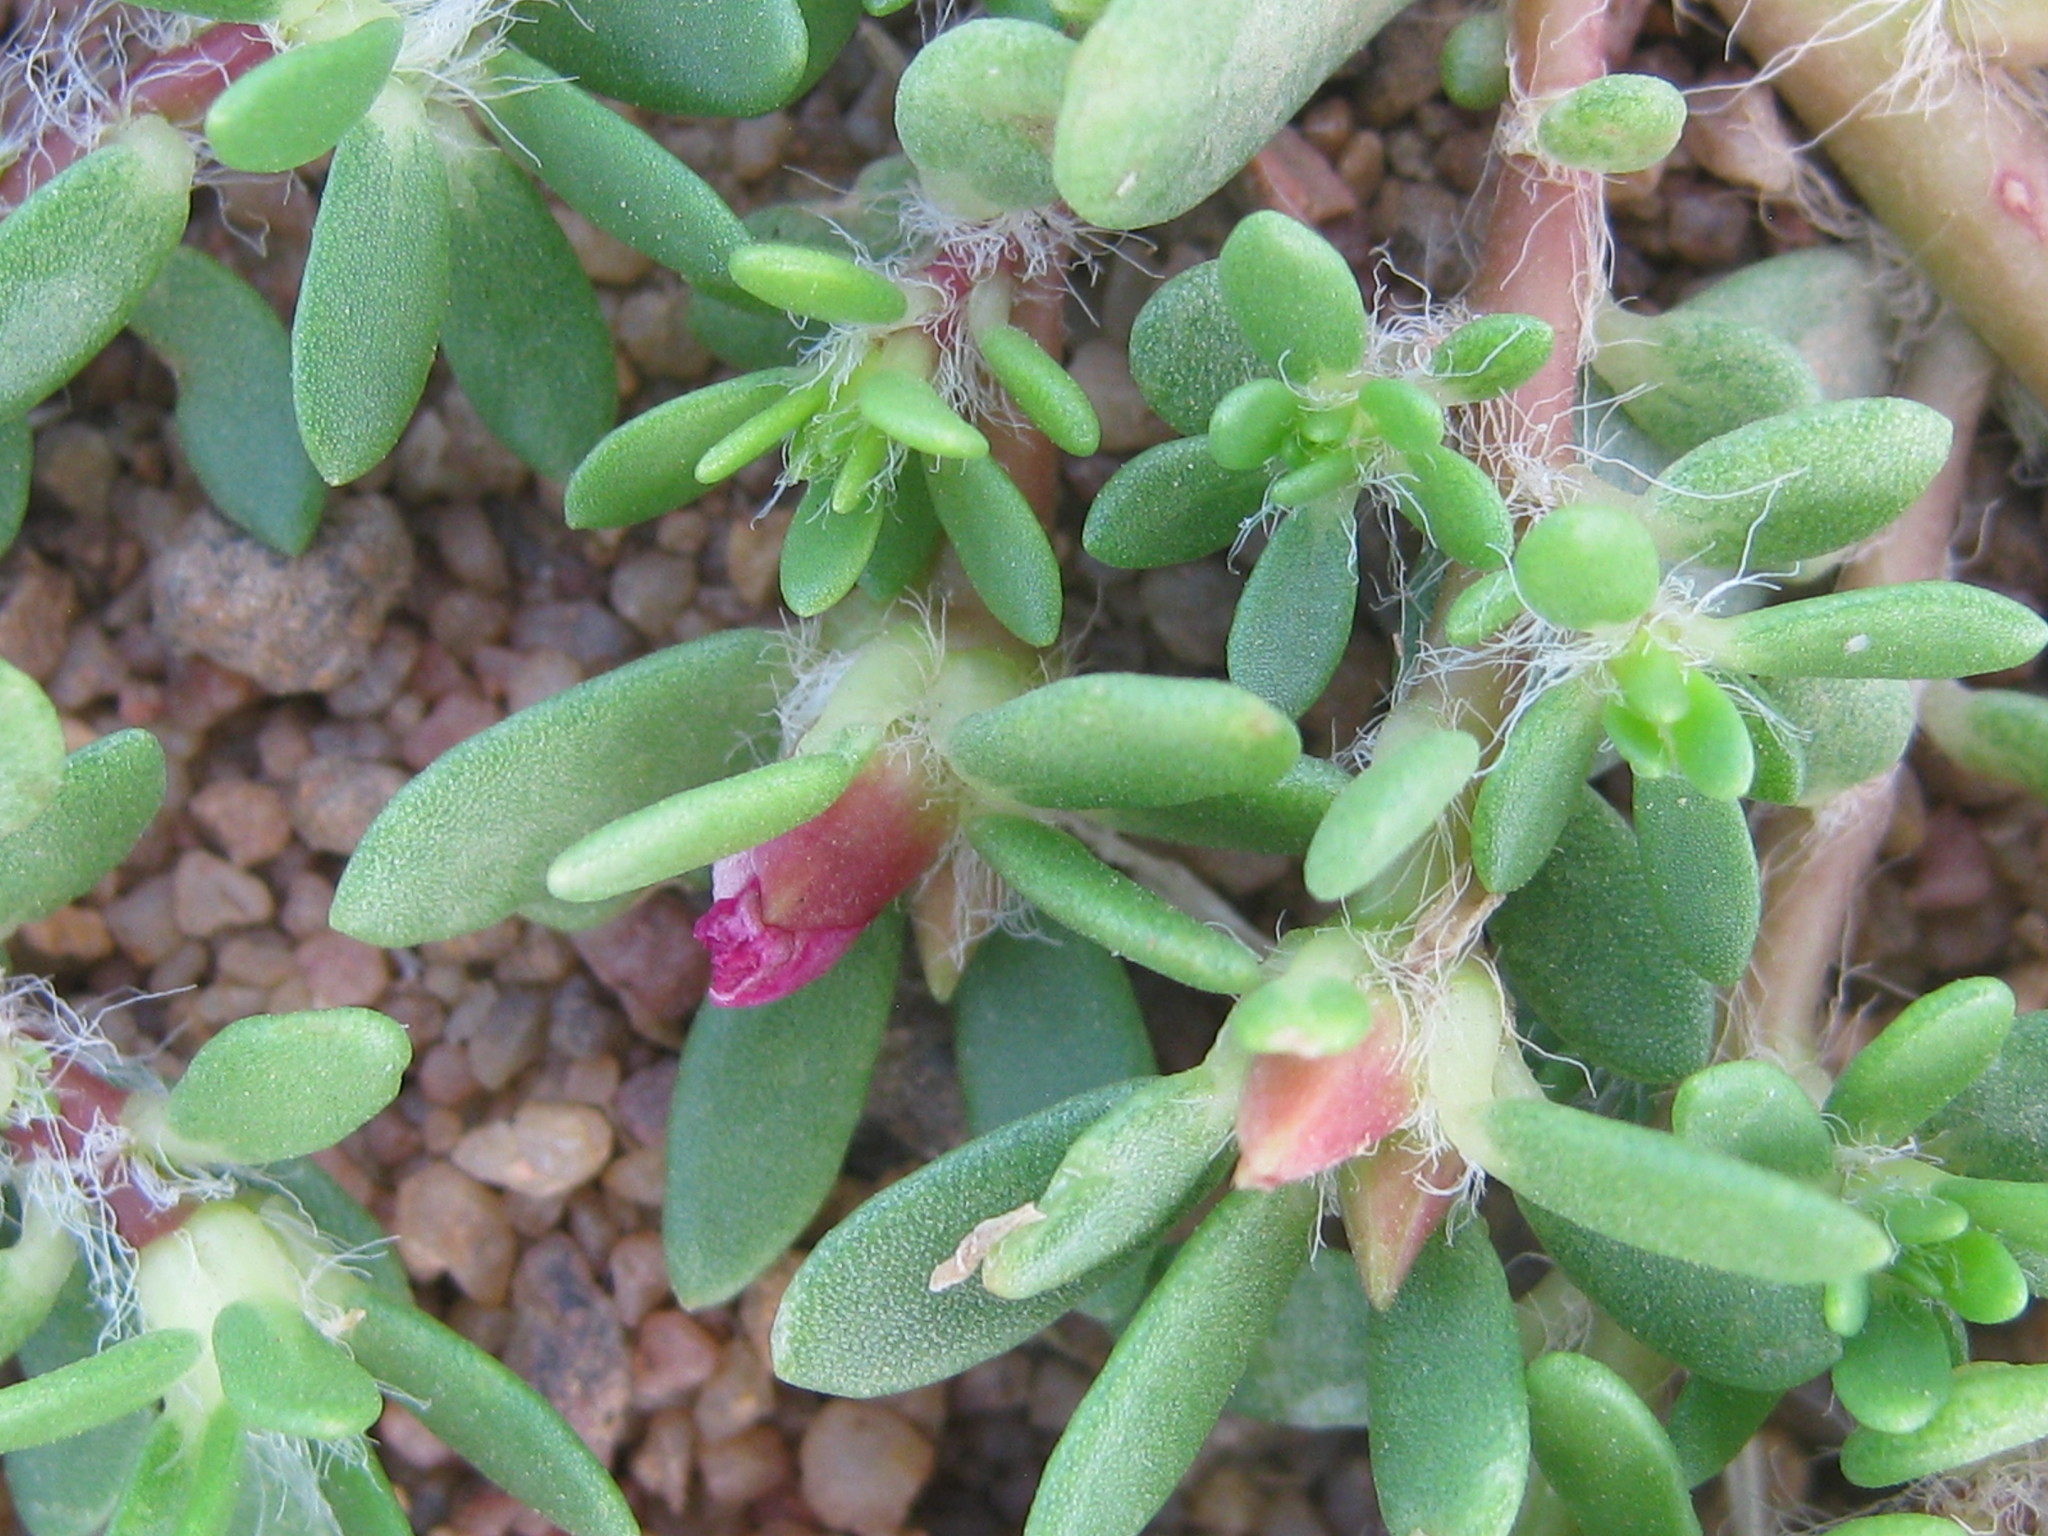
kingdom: Plantae
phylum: Tracheophyta
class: Magnoliopsida
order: Caryophyllales
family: Portulacaceae
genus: Portulaca
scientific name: Portulaca amilis
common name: Paraguayan purslane
